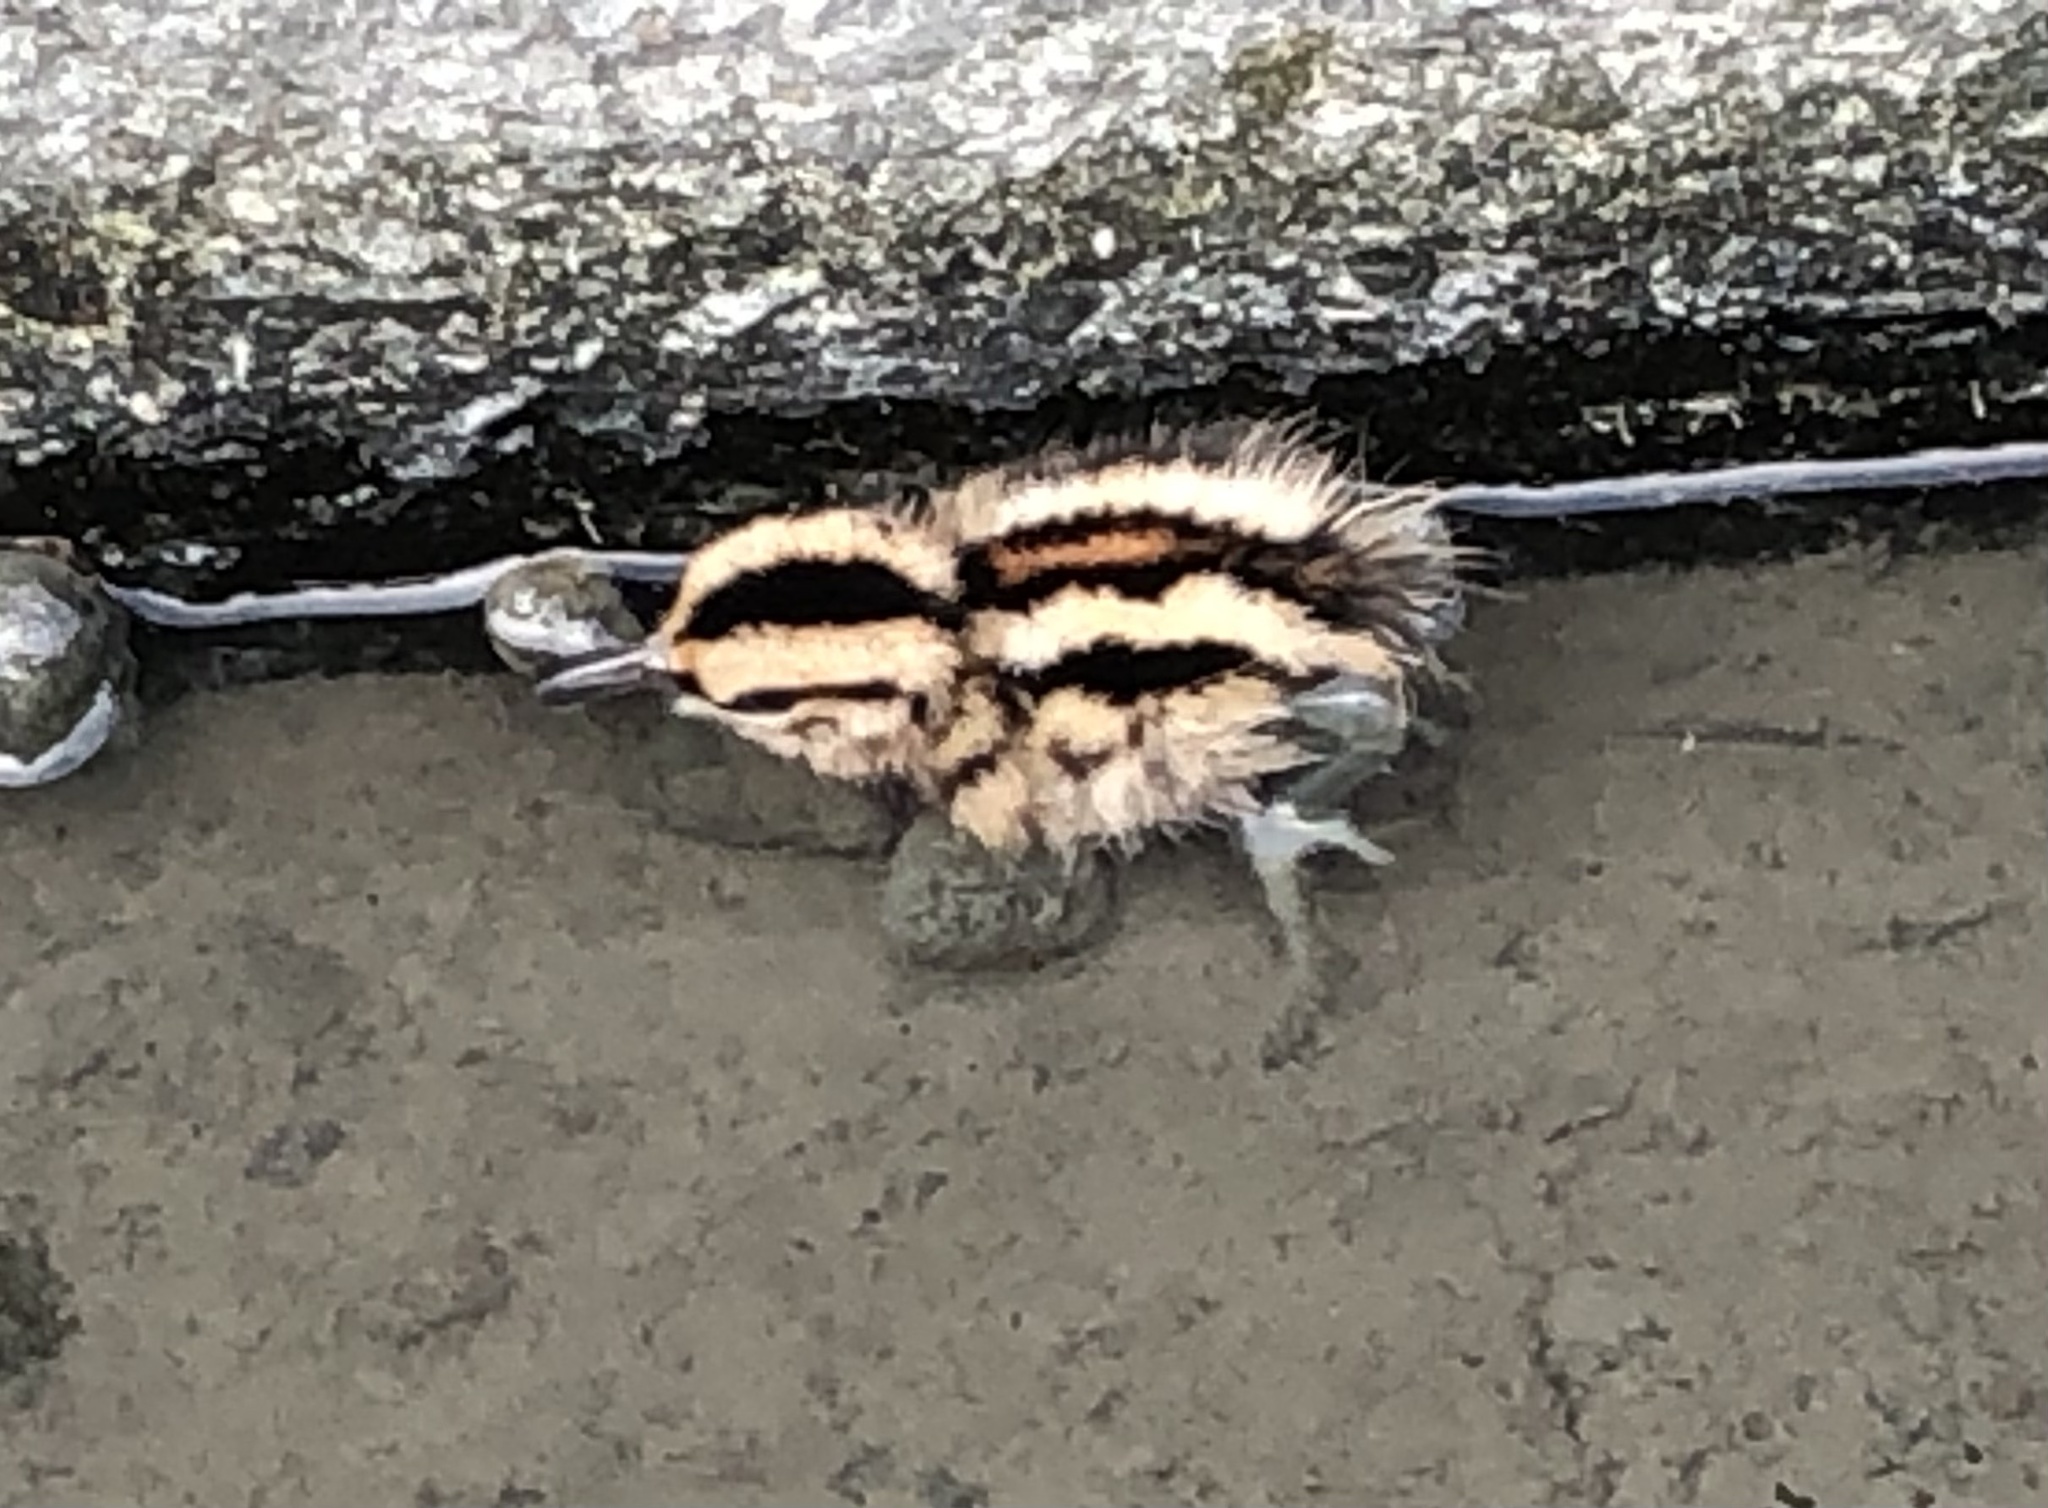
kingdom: Animalia
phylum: Chordata
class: Aves
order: Charadriiformes
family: Rostratulidae
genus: Rostratula
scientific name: Rostratula benghalensis
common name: Greater painted-snipe
